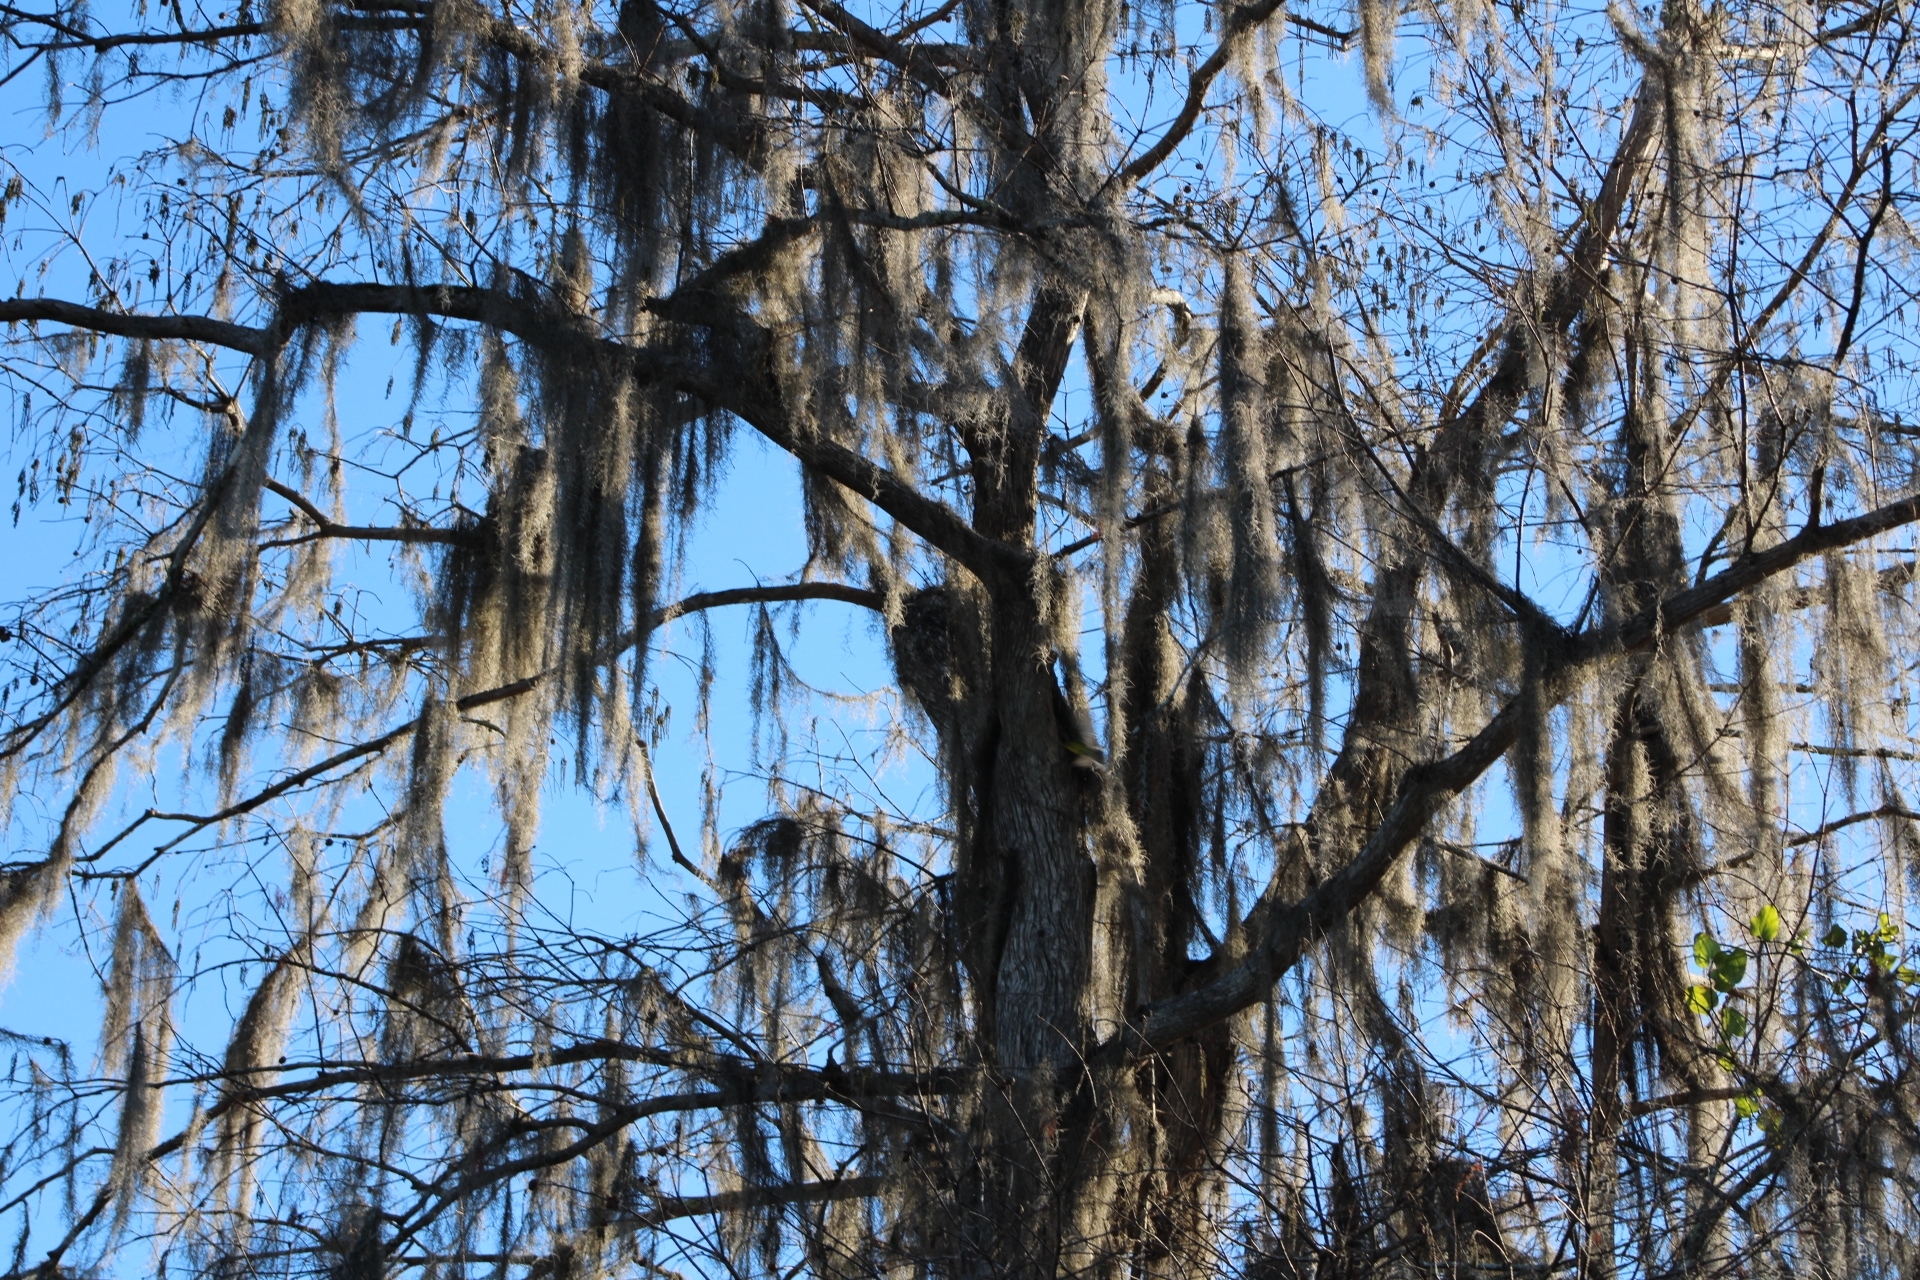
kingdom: Plantae
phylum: Tracheophyta
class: Liliopsida
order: Poales
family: Bromeliaceae
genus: Tillandsia
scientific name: Tillandsia usneoides
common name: Spanish moss
